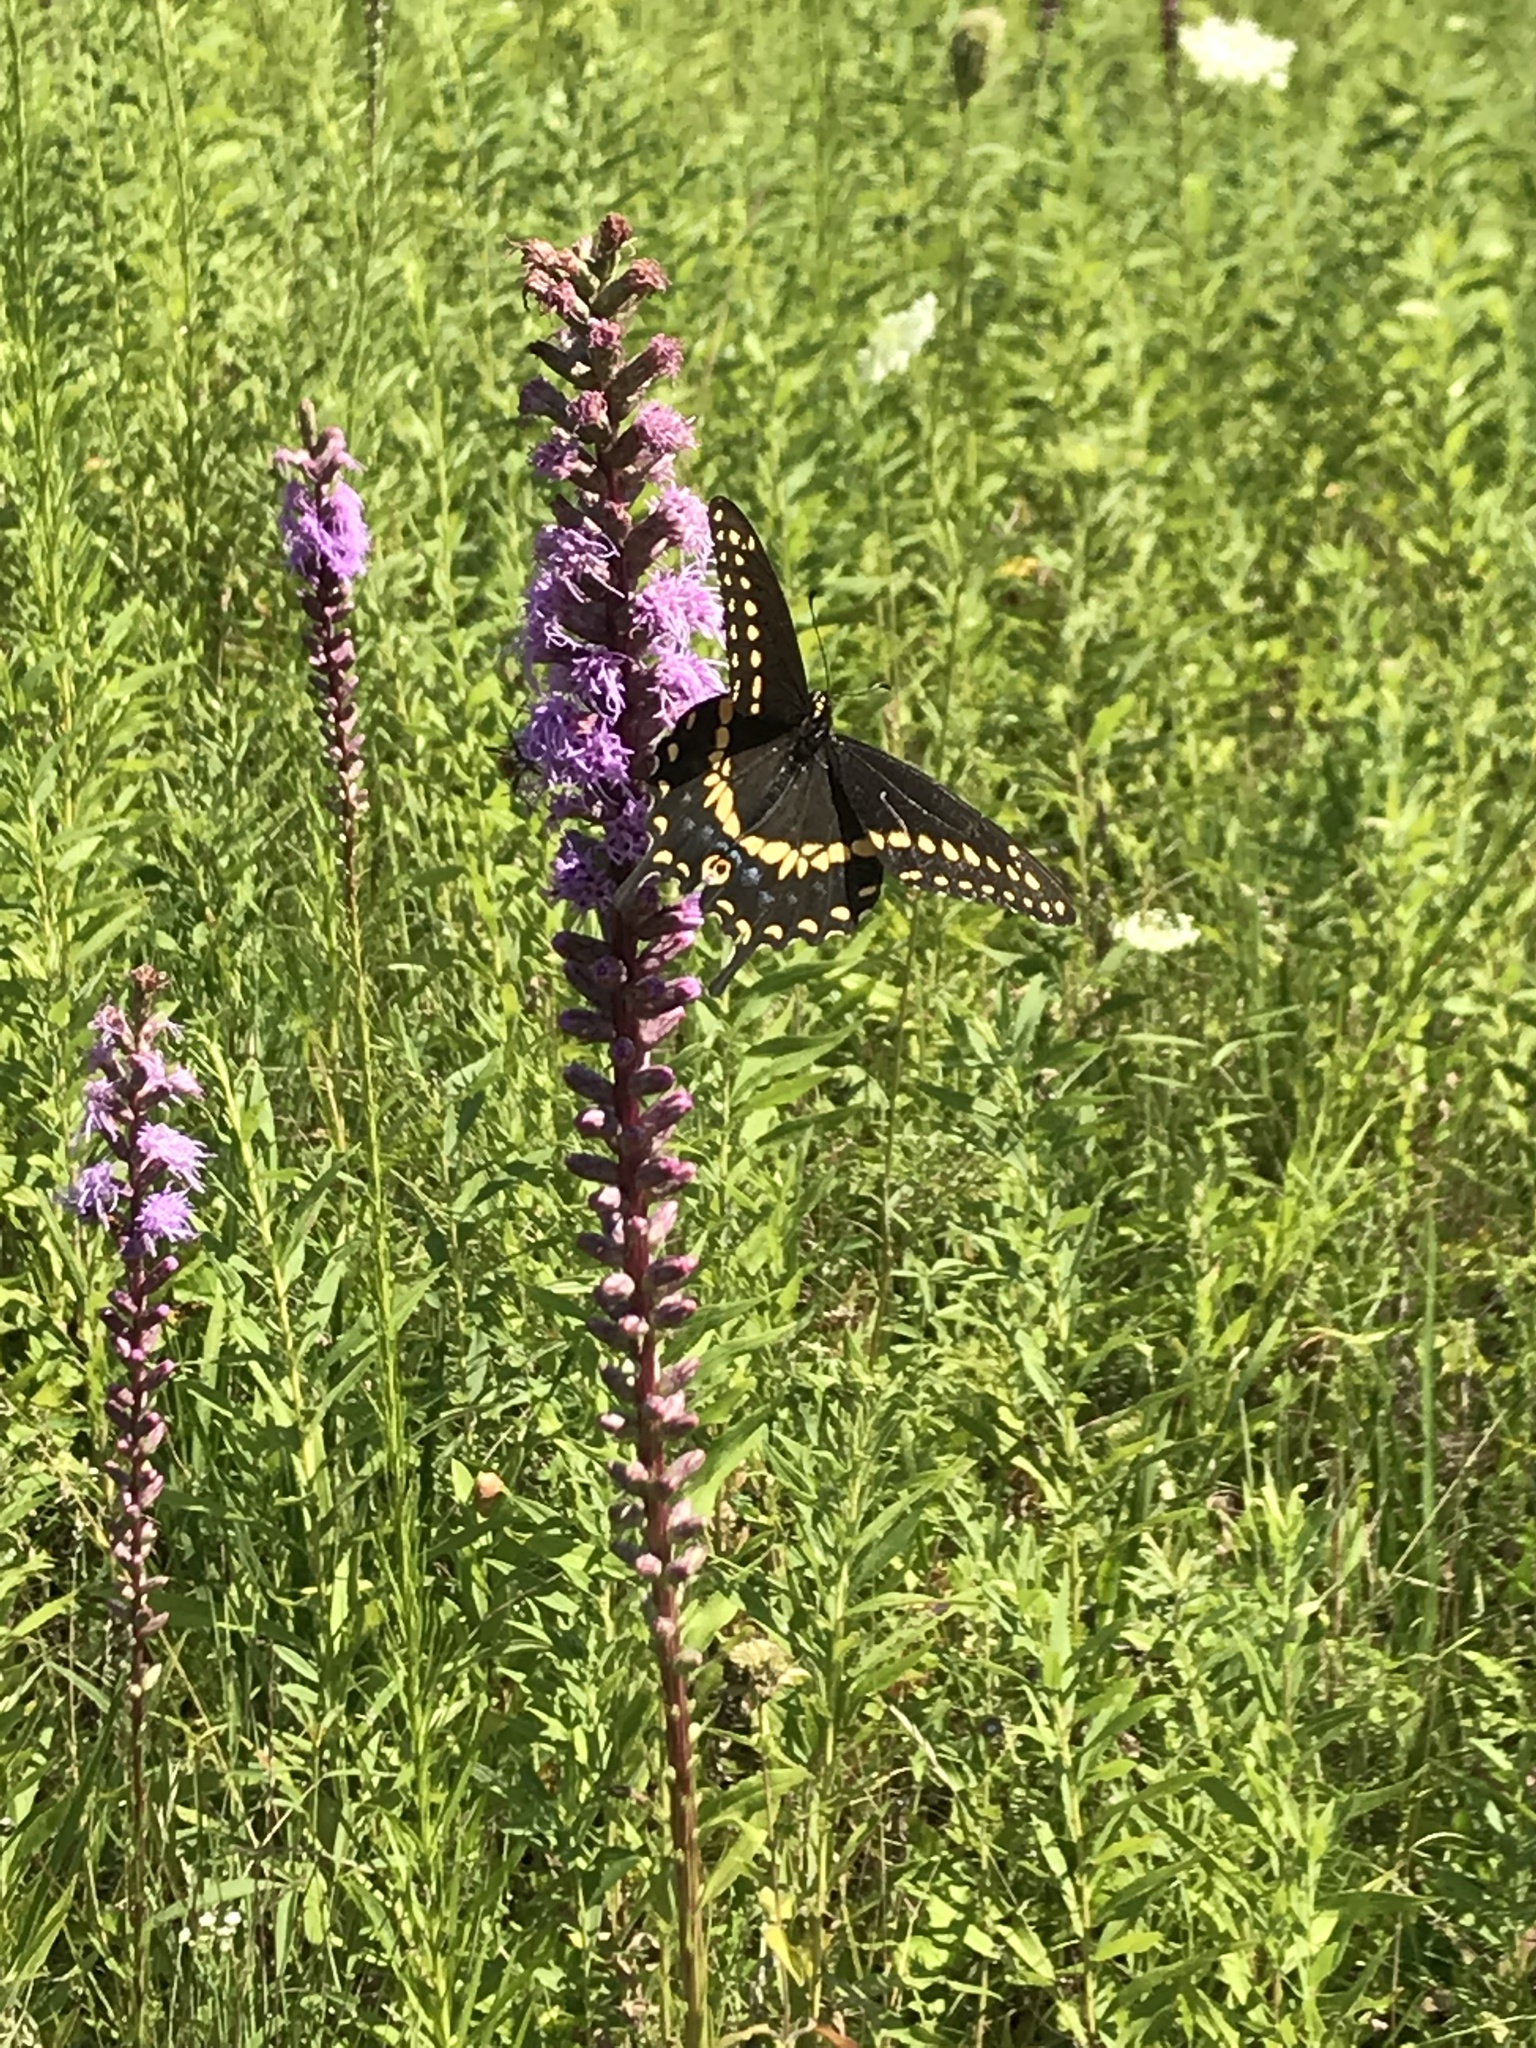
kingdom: Animalia
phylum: Arthropoda
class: Insecta
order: Lepidoptera
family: Papilionidae
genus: Papilio
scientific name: Papilio polyxenes
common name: Black swallowtail
